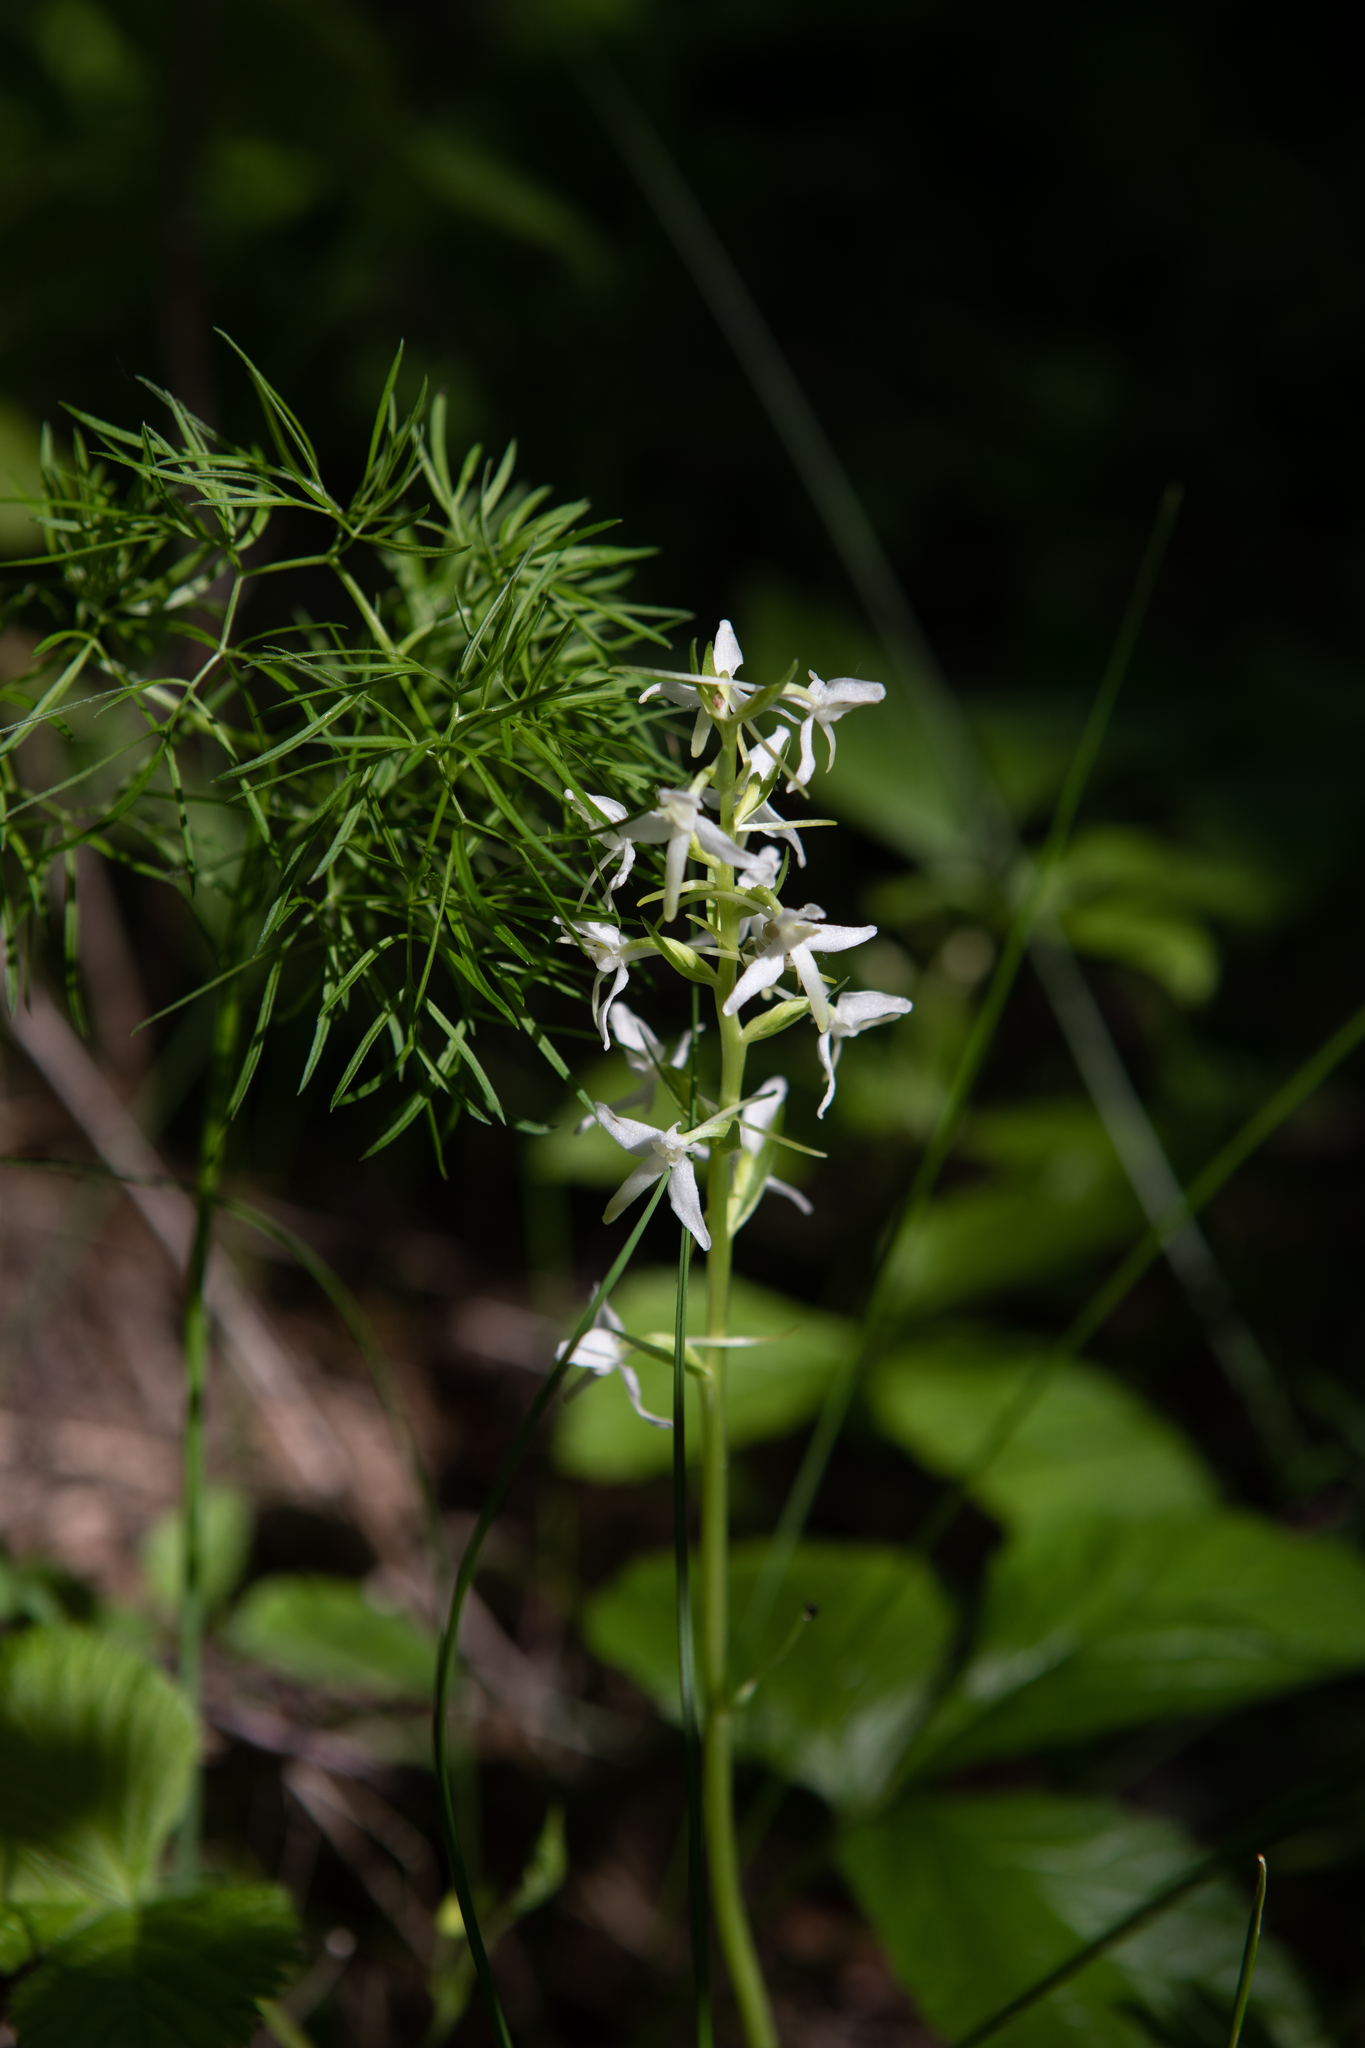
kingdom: Plantae
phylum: Tracheophyta
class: Liliopsida
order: Asparagales
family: Orchidaceae
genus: Platanthera
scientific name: Platanthera bifolia
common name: Lesser butterfly-orchid
